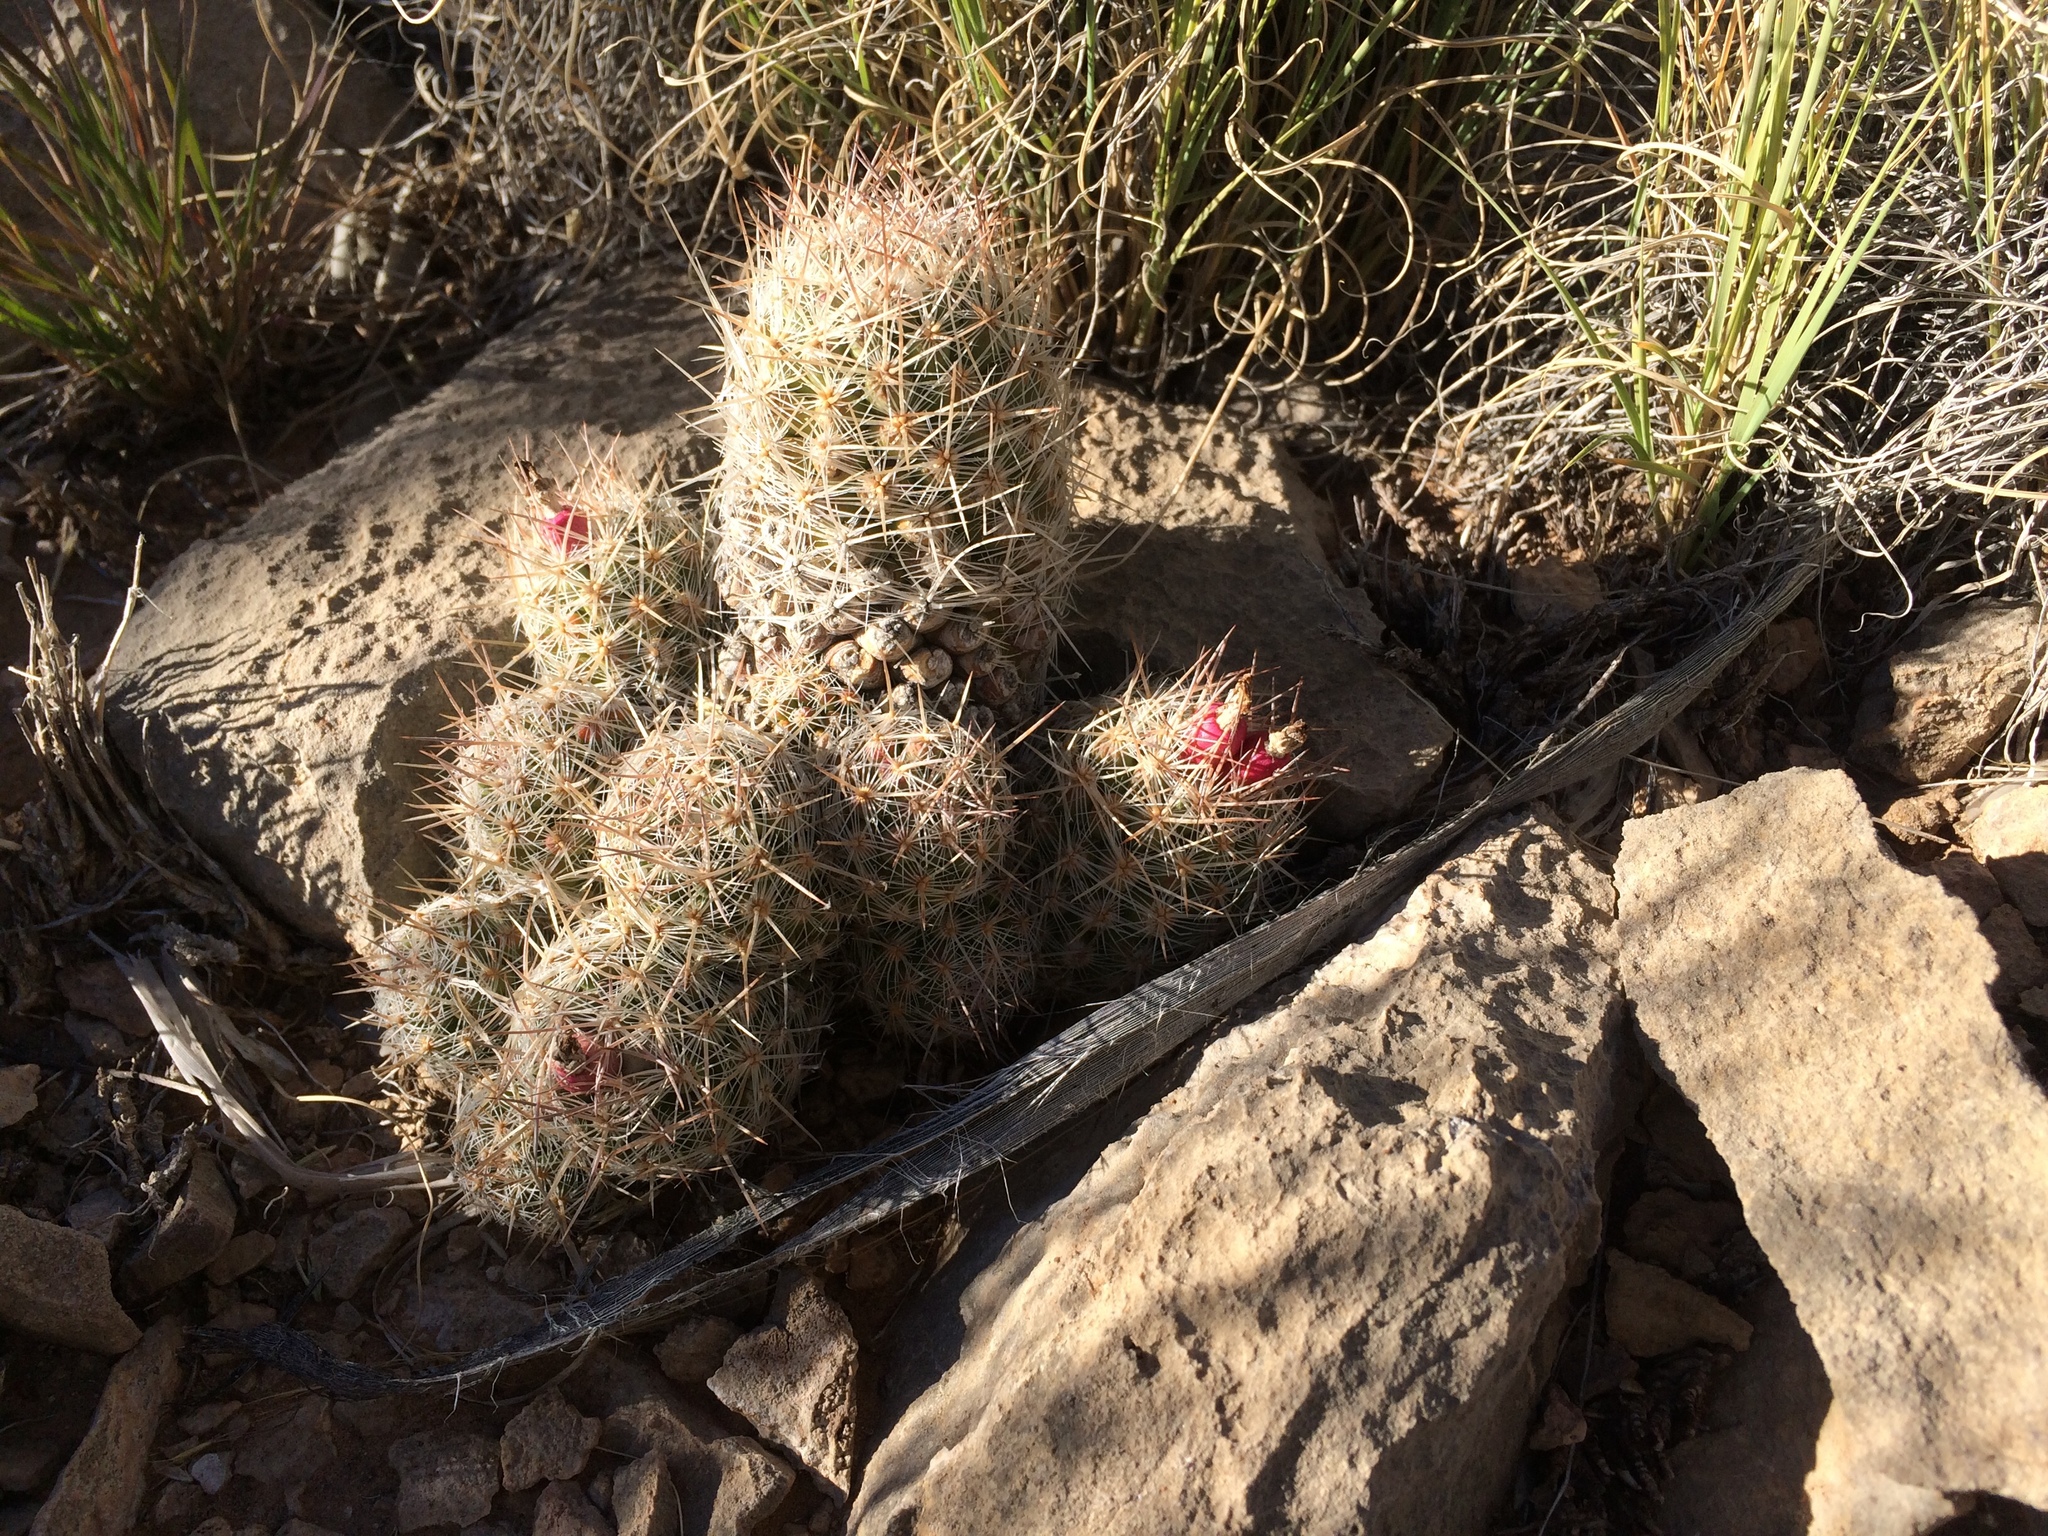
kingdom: Plantae
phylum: Tracheophyta
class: Magnoliopsida
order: Caryophyllales
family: Cactaceae
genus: Pelecyphora
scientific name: Pelecyphora tuberculosa
